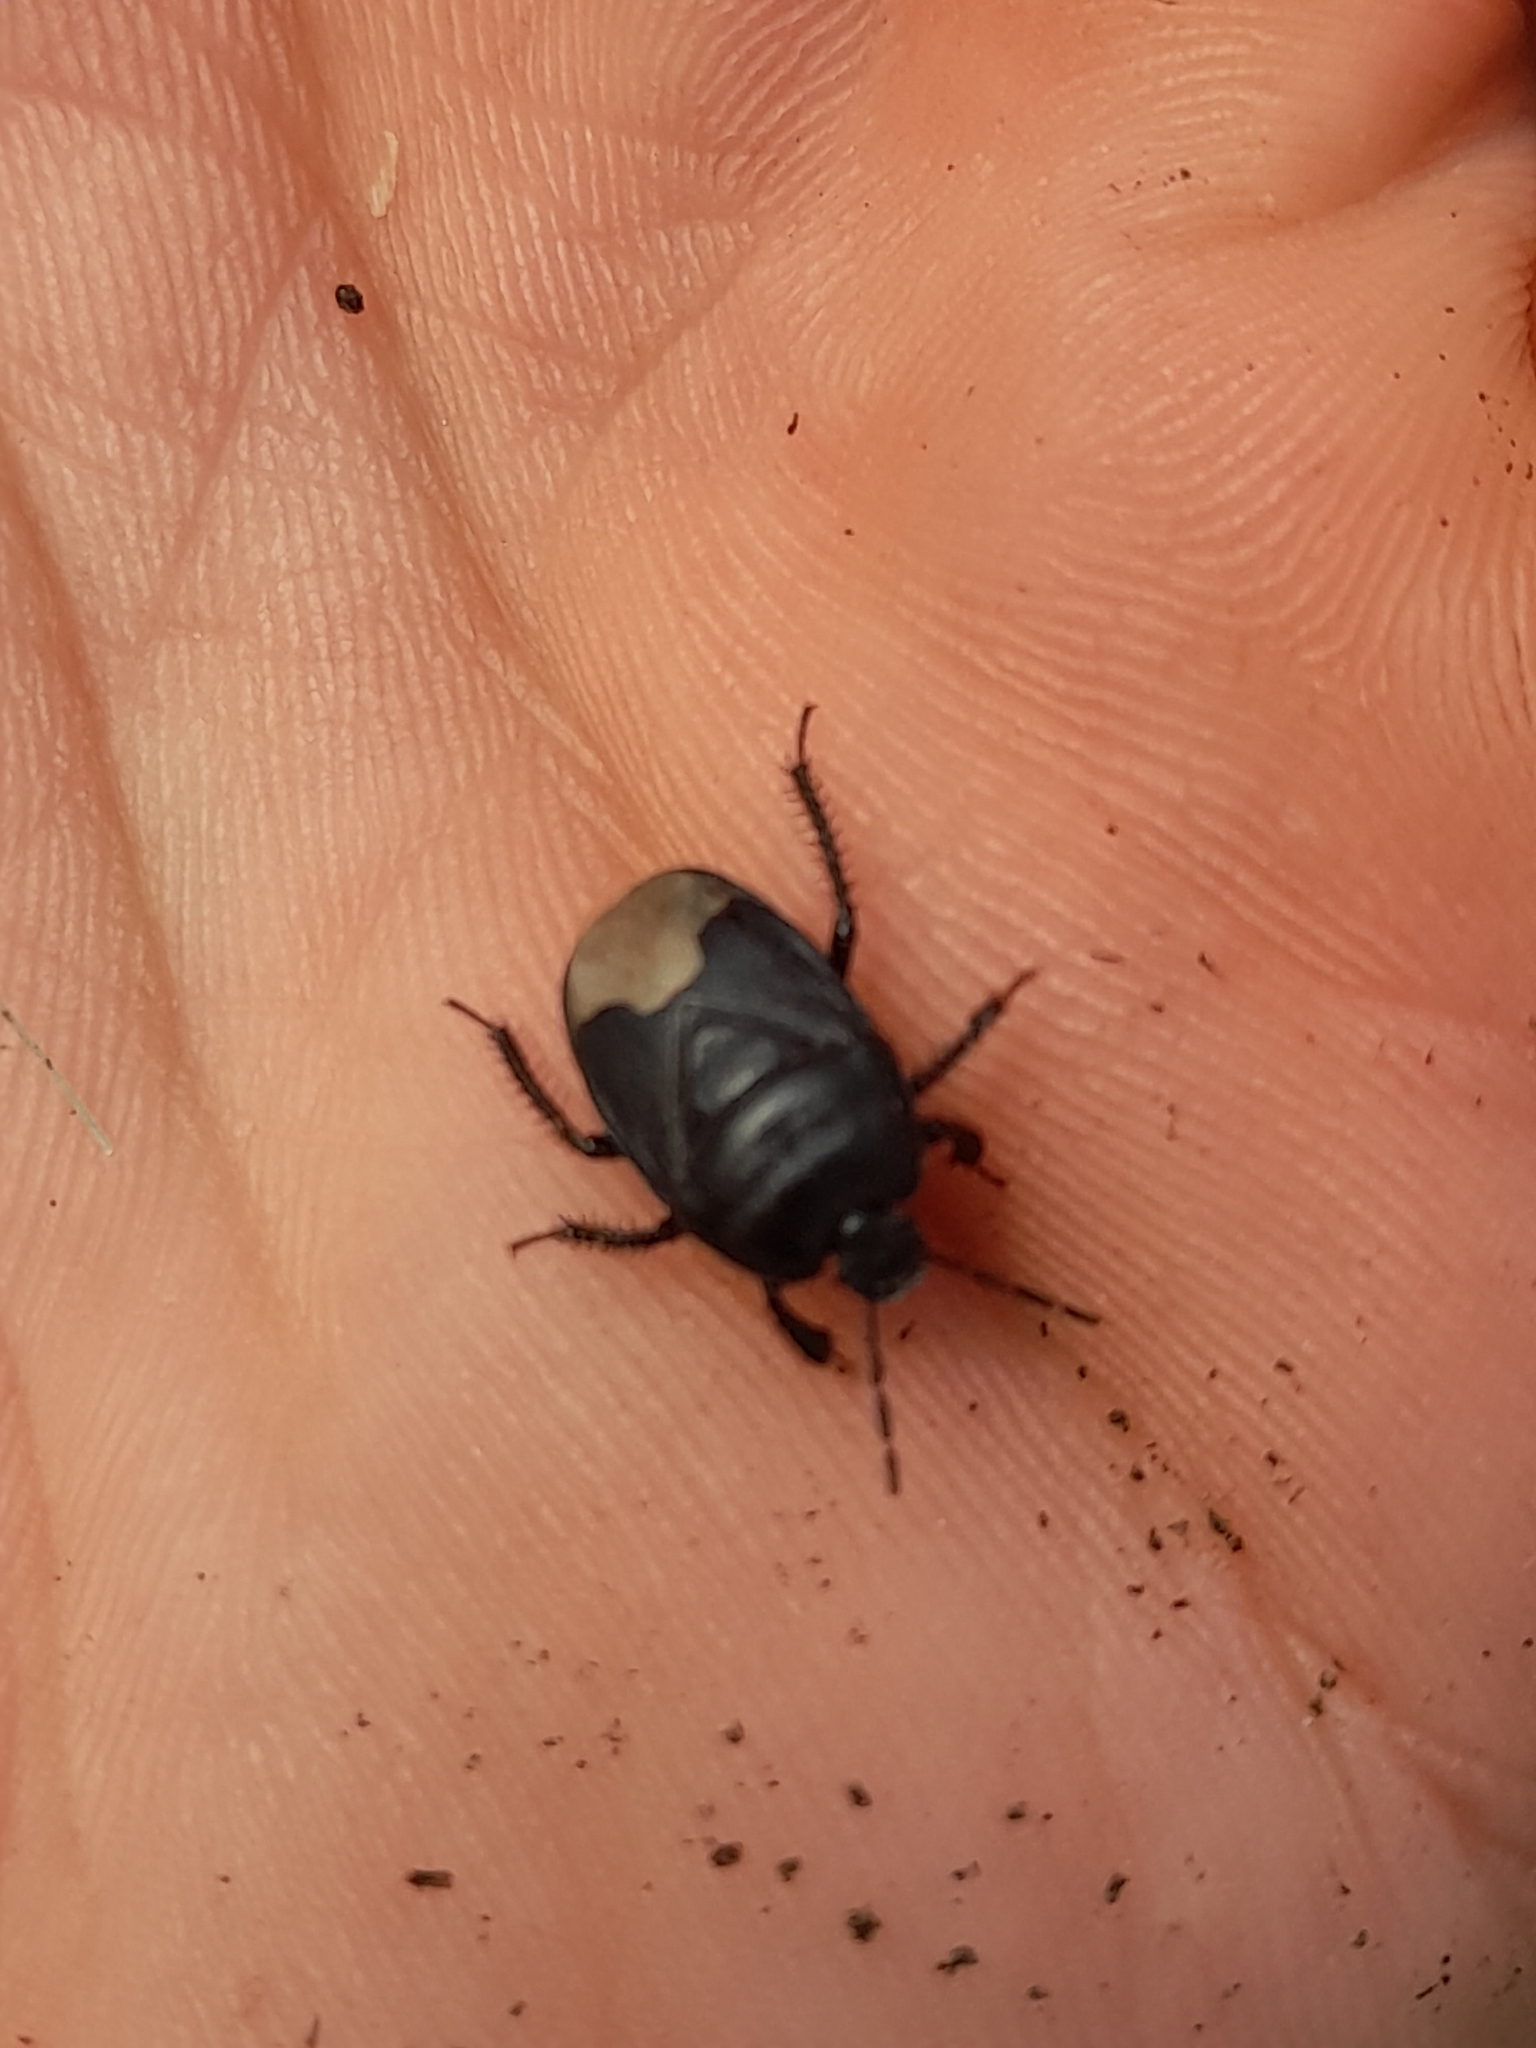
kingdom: Animalia
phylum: Arthropoda
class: Insecta
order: Hemiptera
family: Cydnidae
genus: Cydnus
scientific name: Cydnus aterrimus
